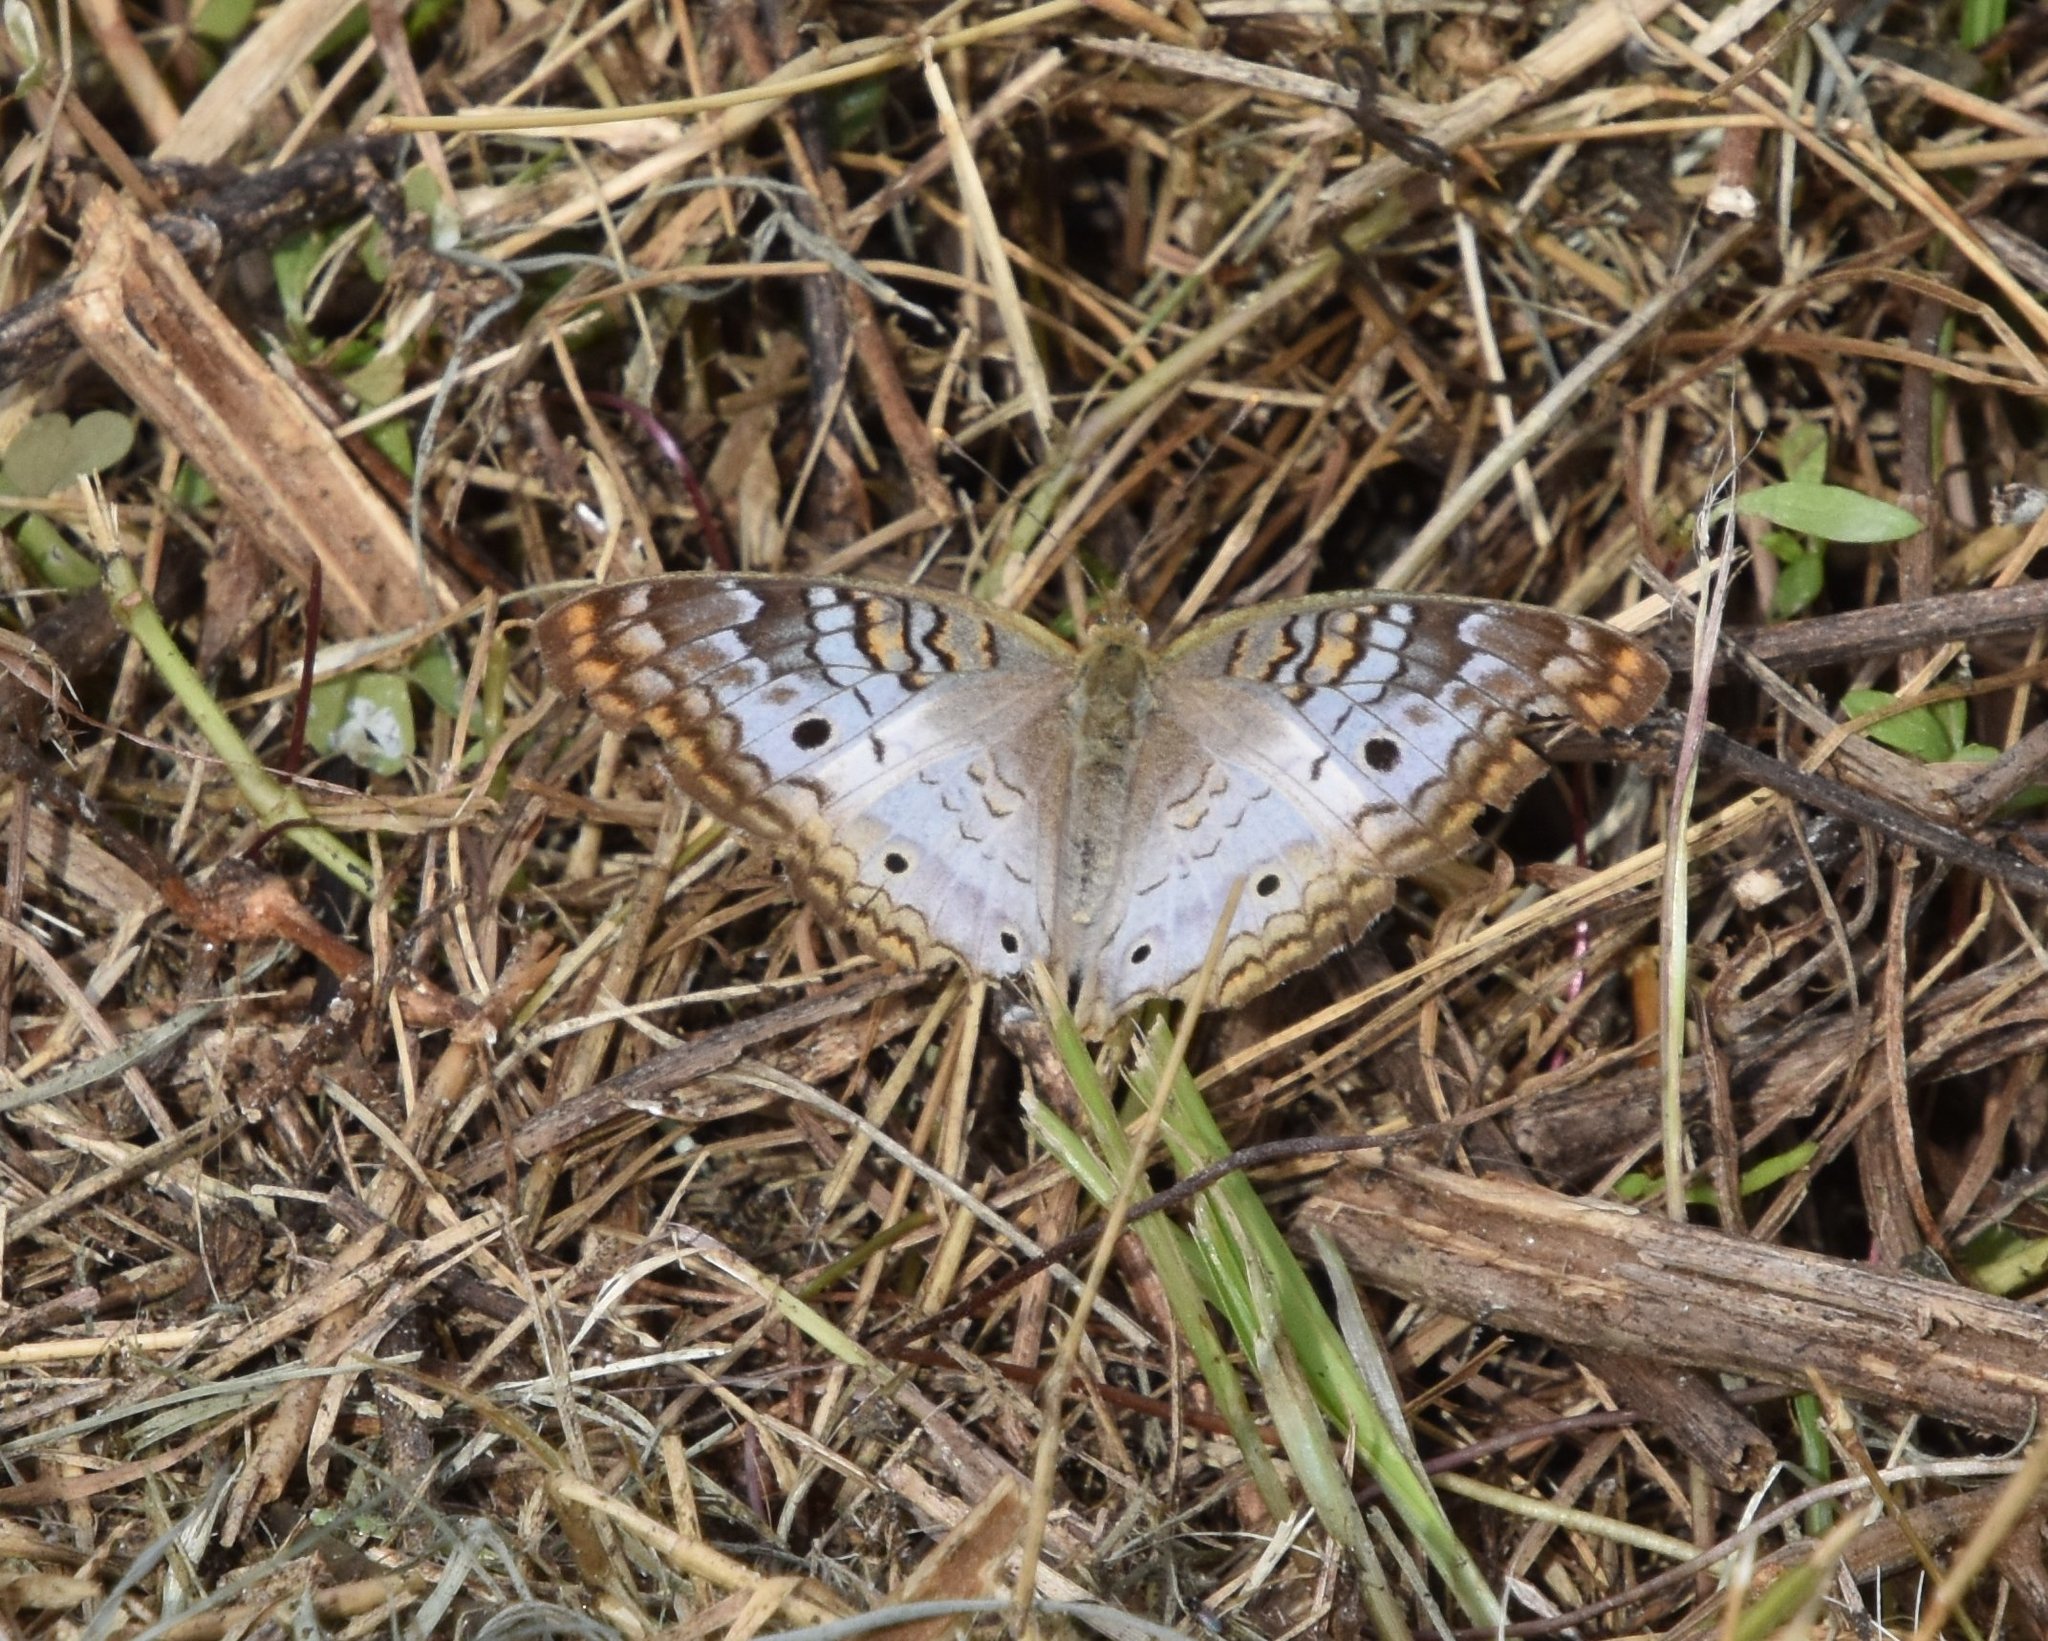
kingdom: Animalia
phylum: Arthropoda
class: Insecta
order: Lepidoptera
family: Nymphalidae
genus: Anartia
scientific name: Anartia jatrophae
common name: White peacock
